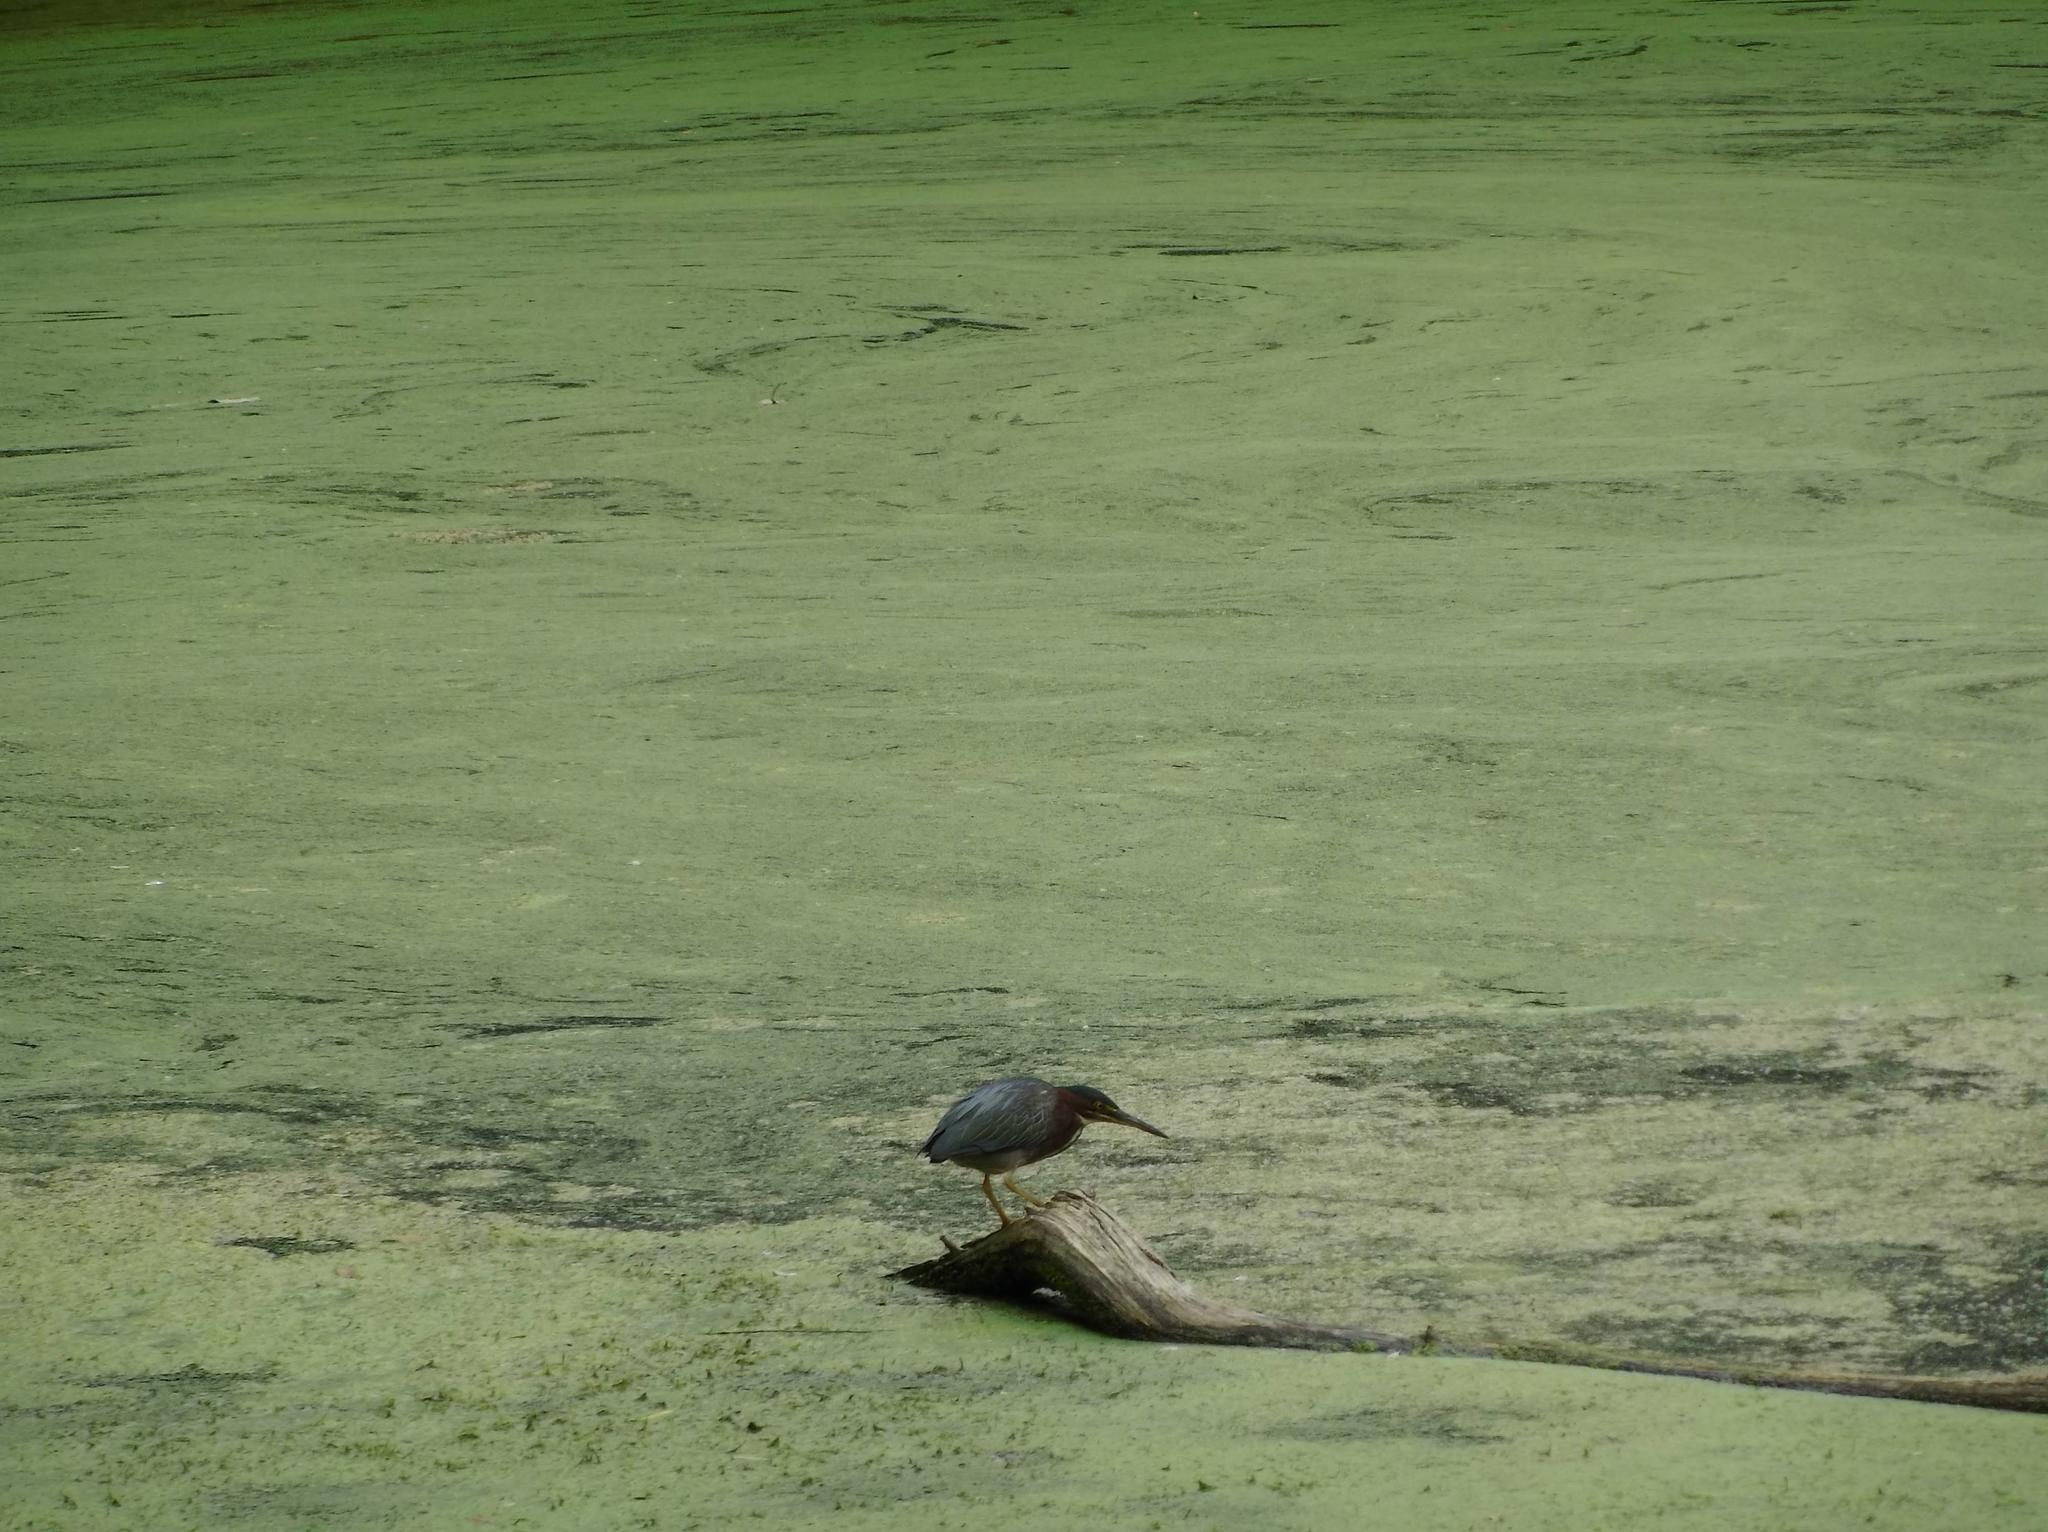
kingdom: Animalia
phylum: Chordata
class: Aves
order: Pelecaniformes
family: Ardeidae
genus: Butorides
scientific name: Butorides virescens
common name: Green heron
